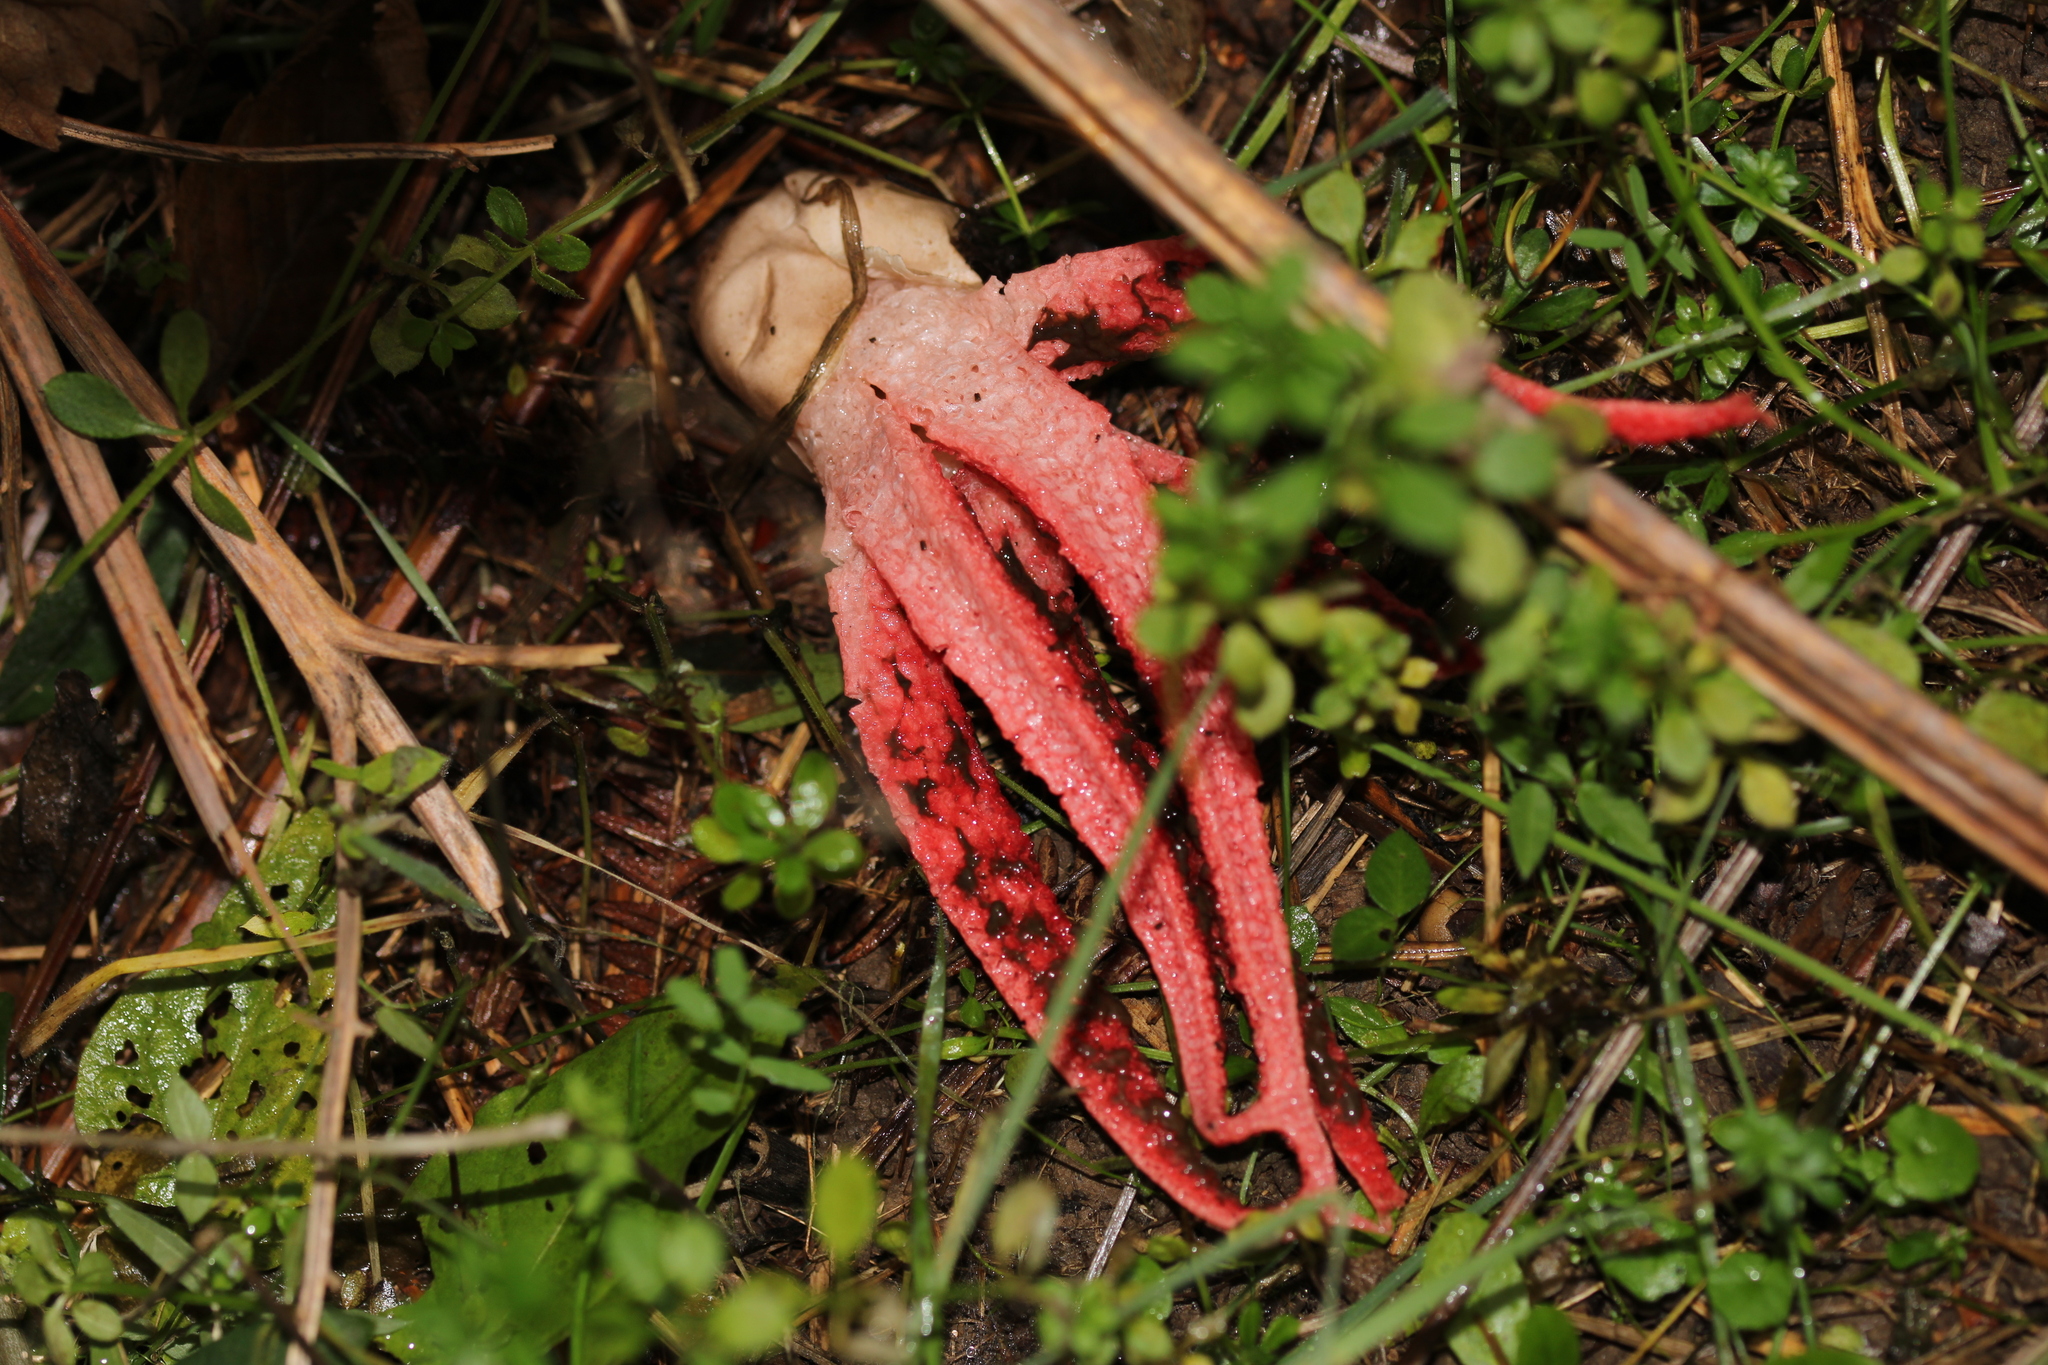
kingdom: Fungi
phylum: Basidiomycota
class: Agaricomycetes
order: Phallales
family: Phallaceae
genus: Clathrus
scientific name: Clathrus archeri
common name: Devil's fingers
